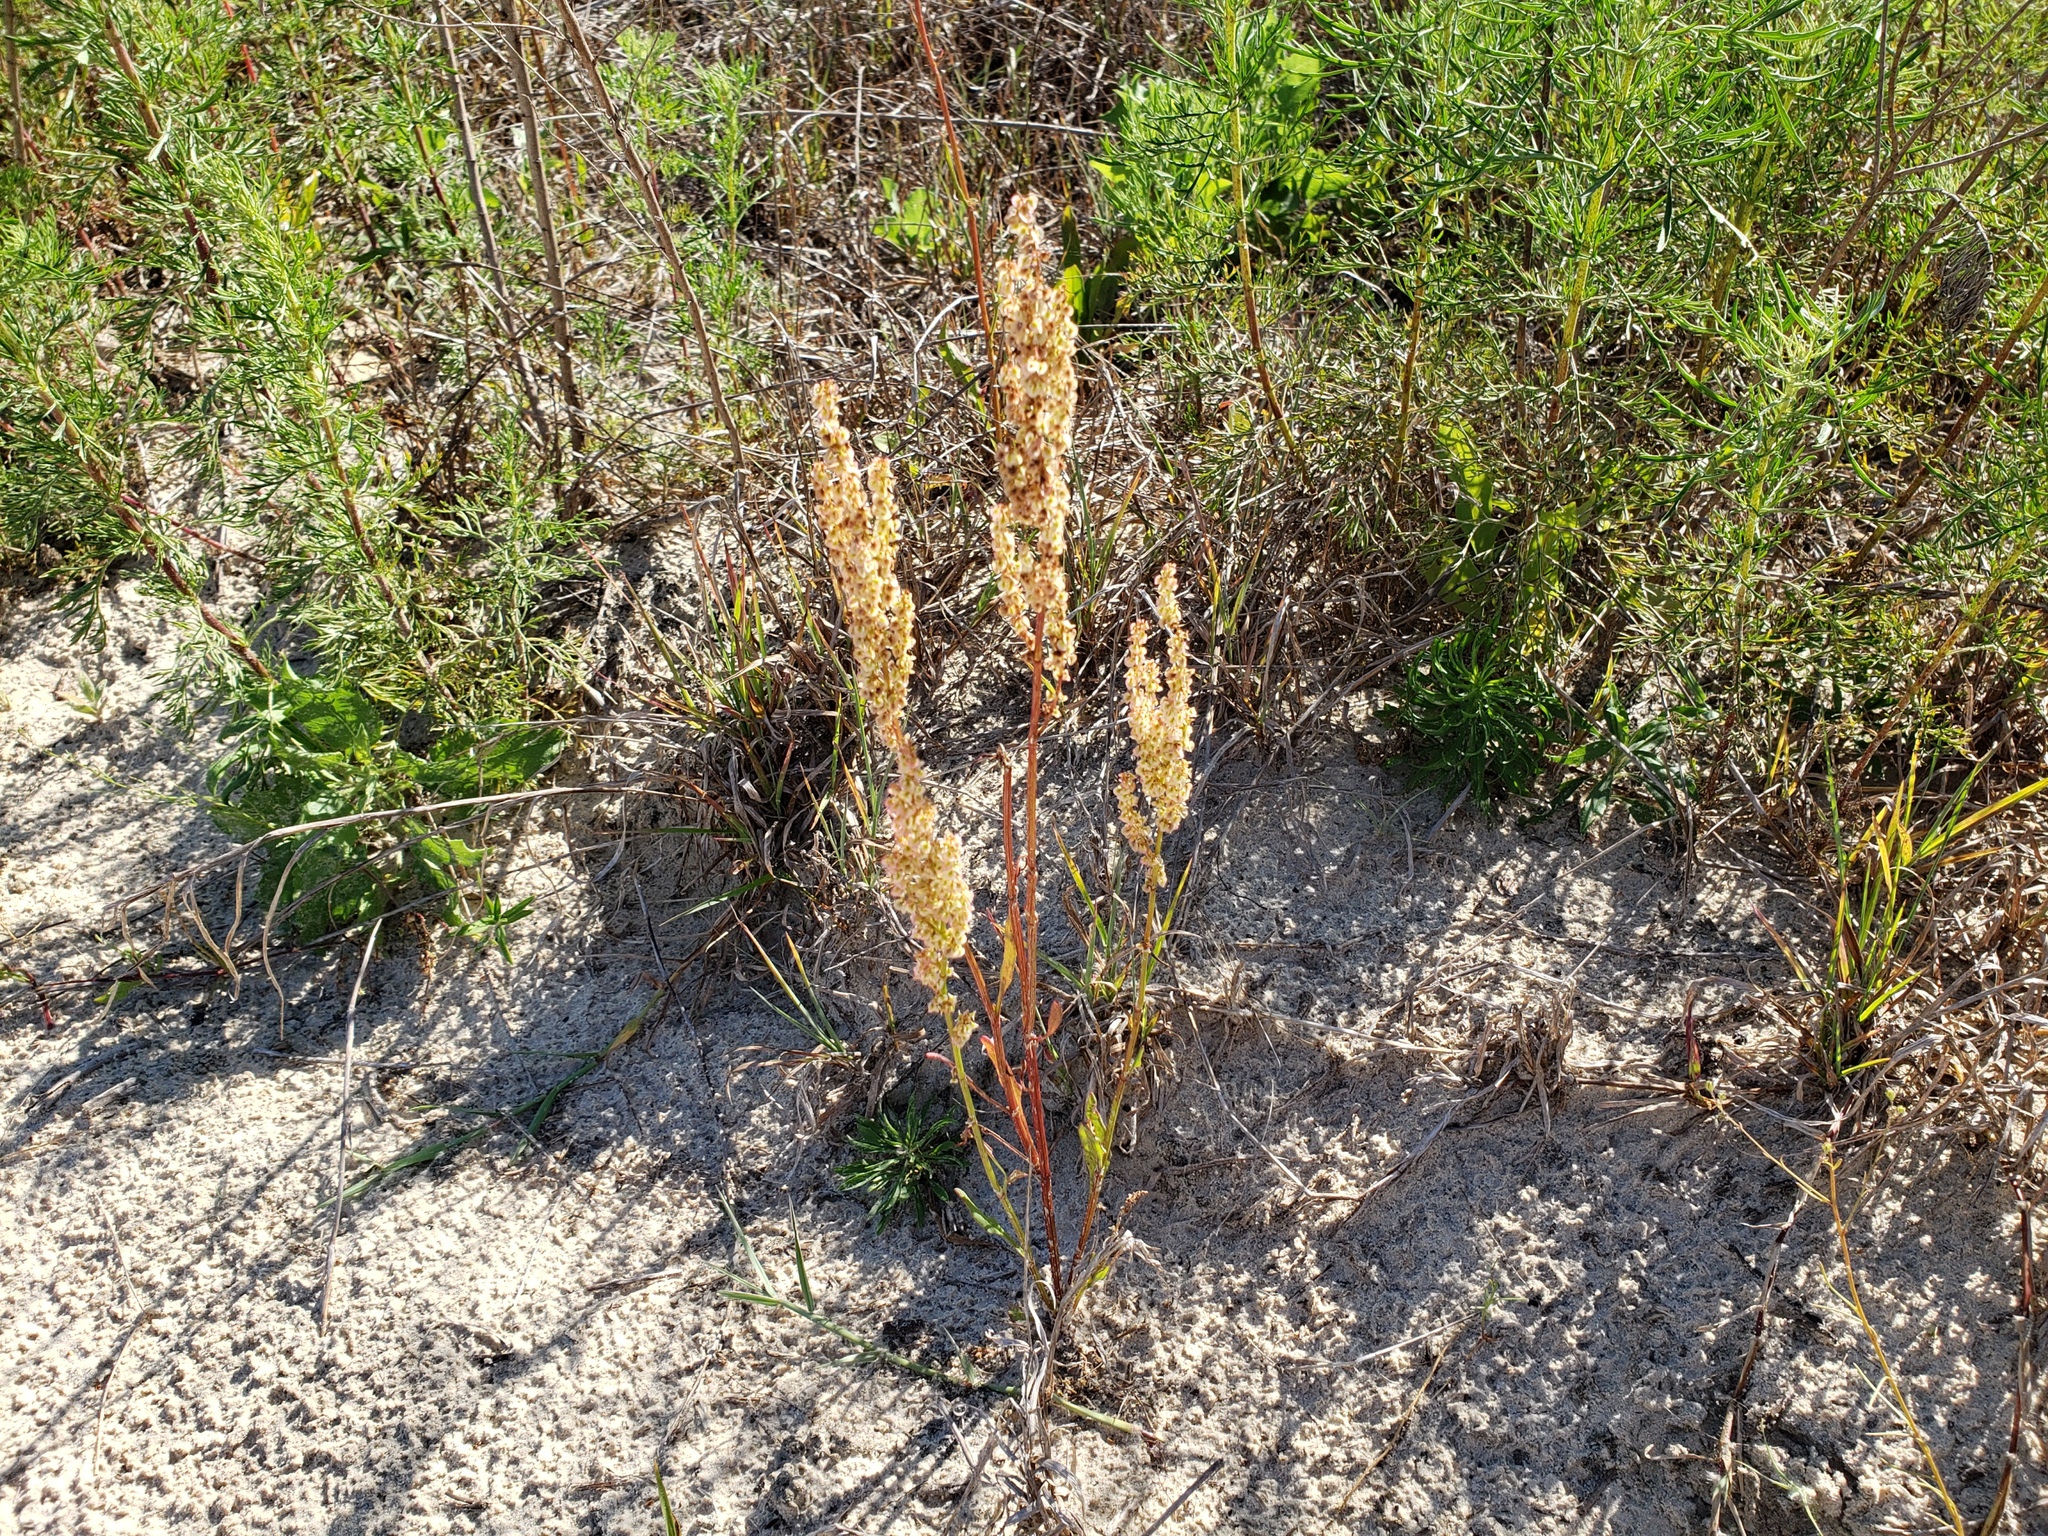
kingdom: Plantae
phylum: Tracheophyta
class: Magnoliopsida
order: Caryophyllales
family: Polygonaceae
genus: Rumex
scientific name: Rumex hastatulus
